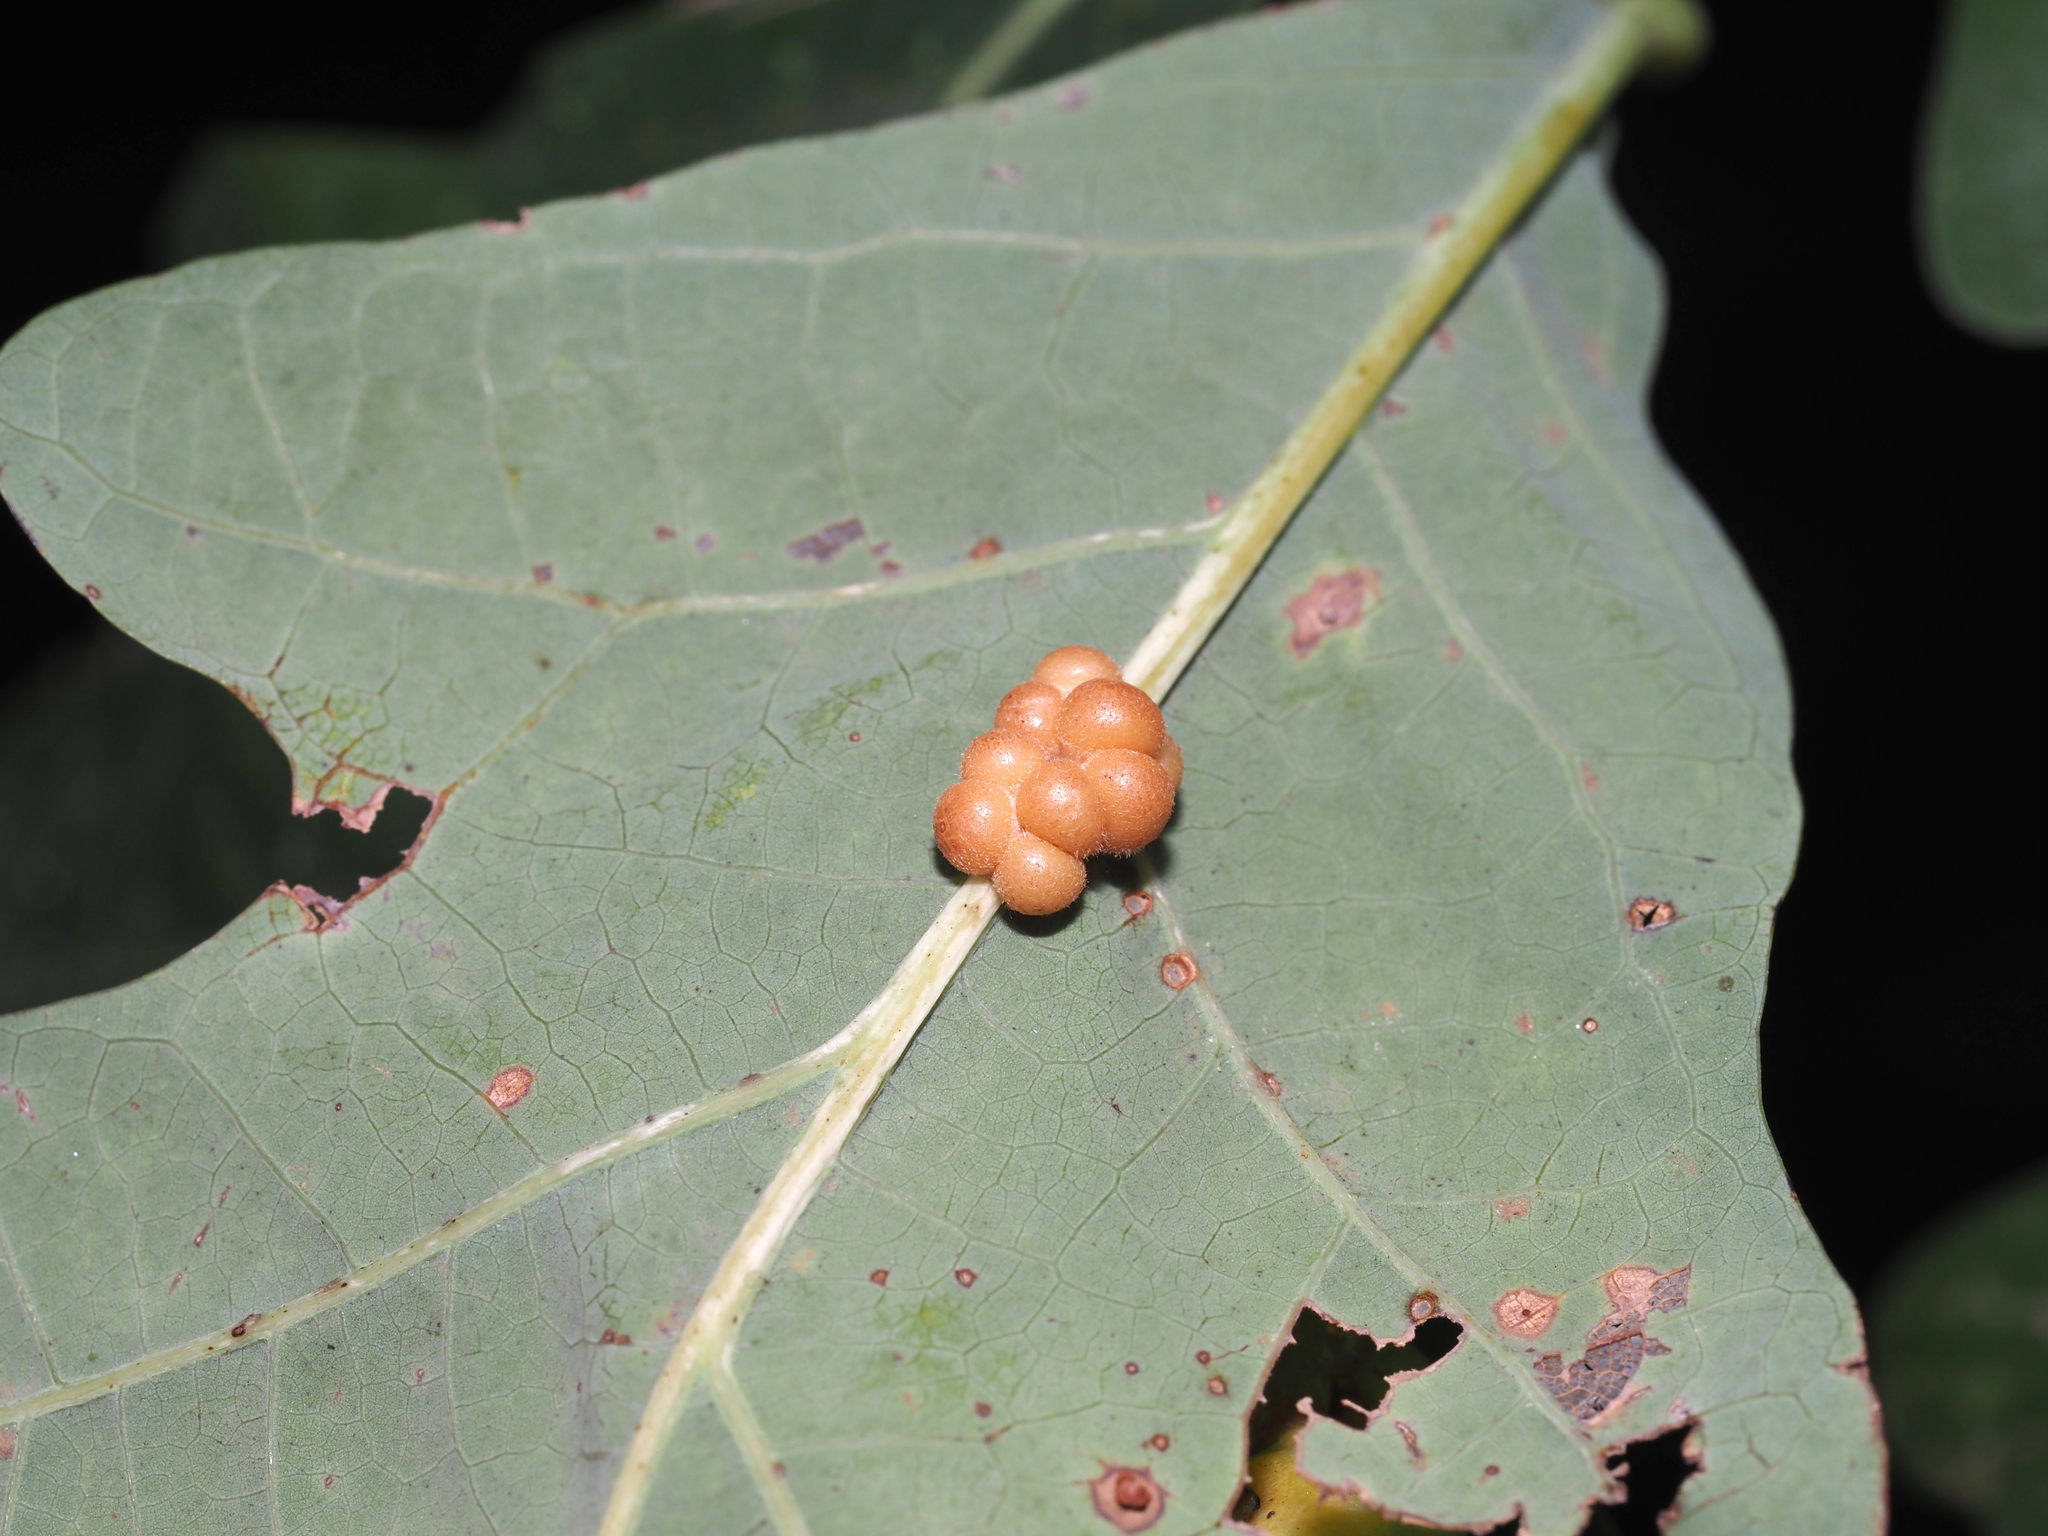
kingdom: Animalia
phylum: Arthropoda
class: Insecta
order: Hymenoptera
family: Cynipidae
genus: Andricus
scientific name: Andricus
